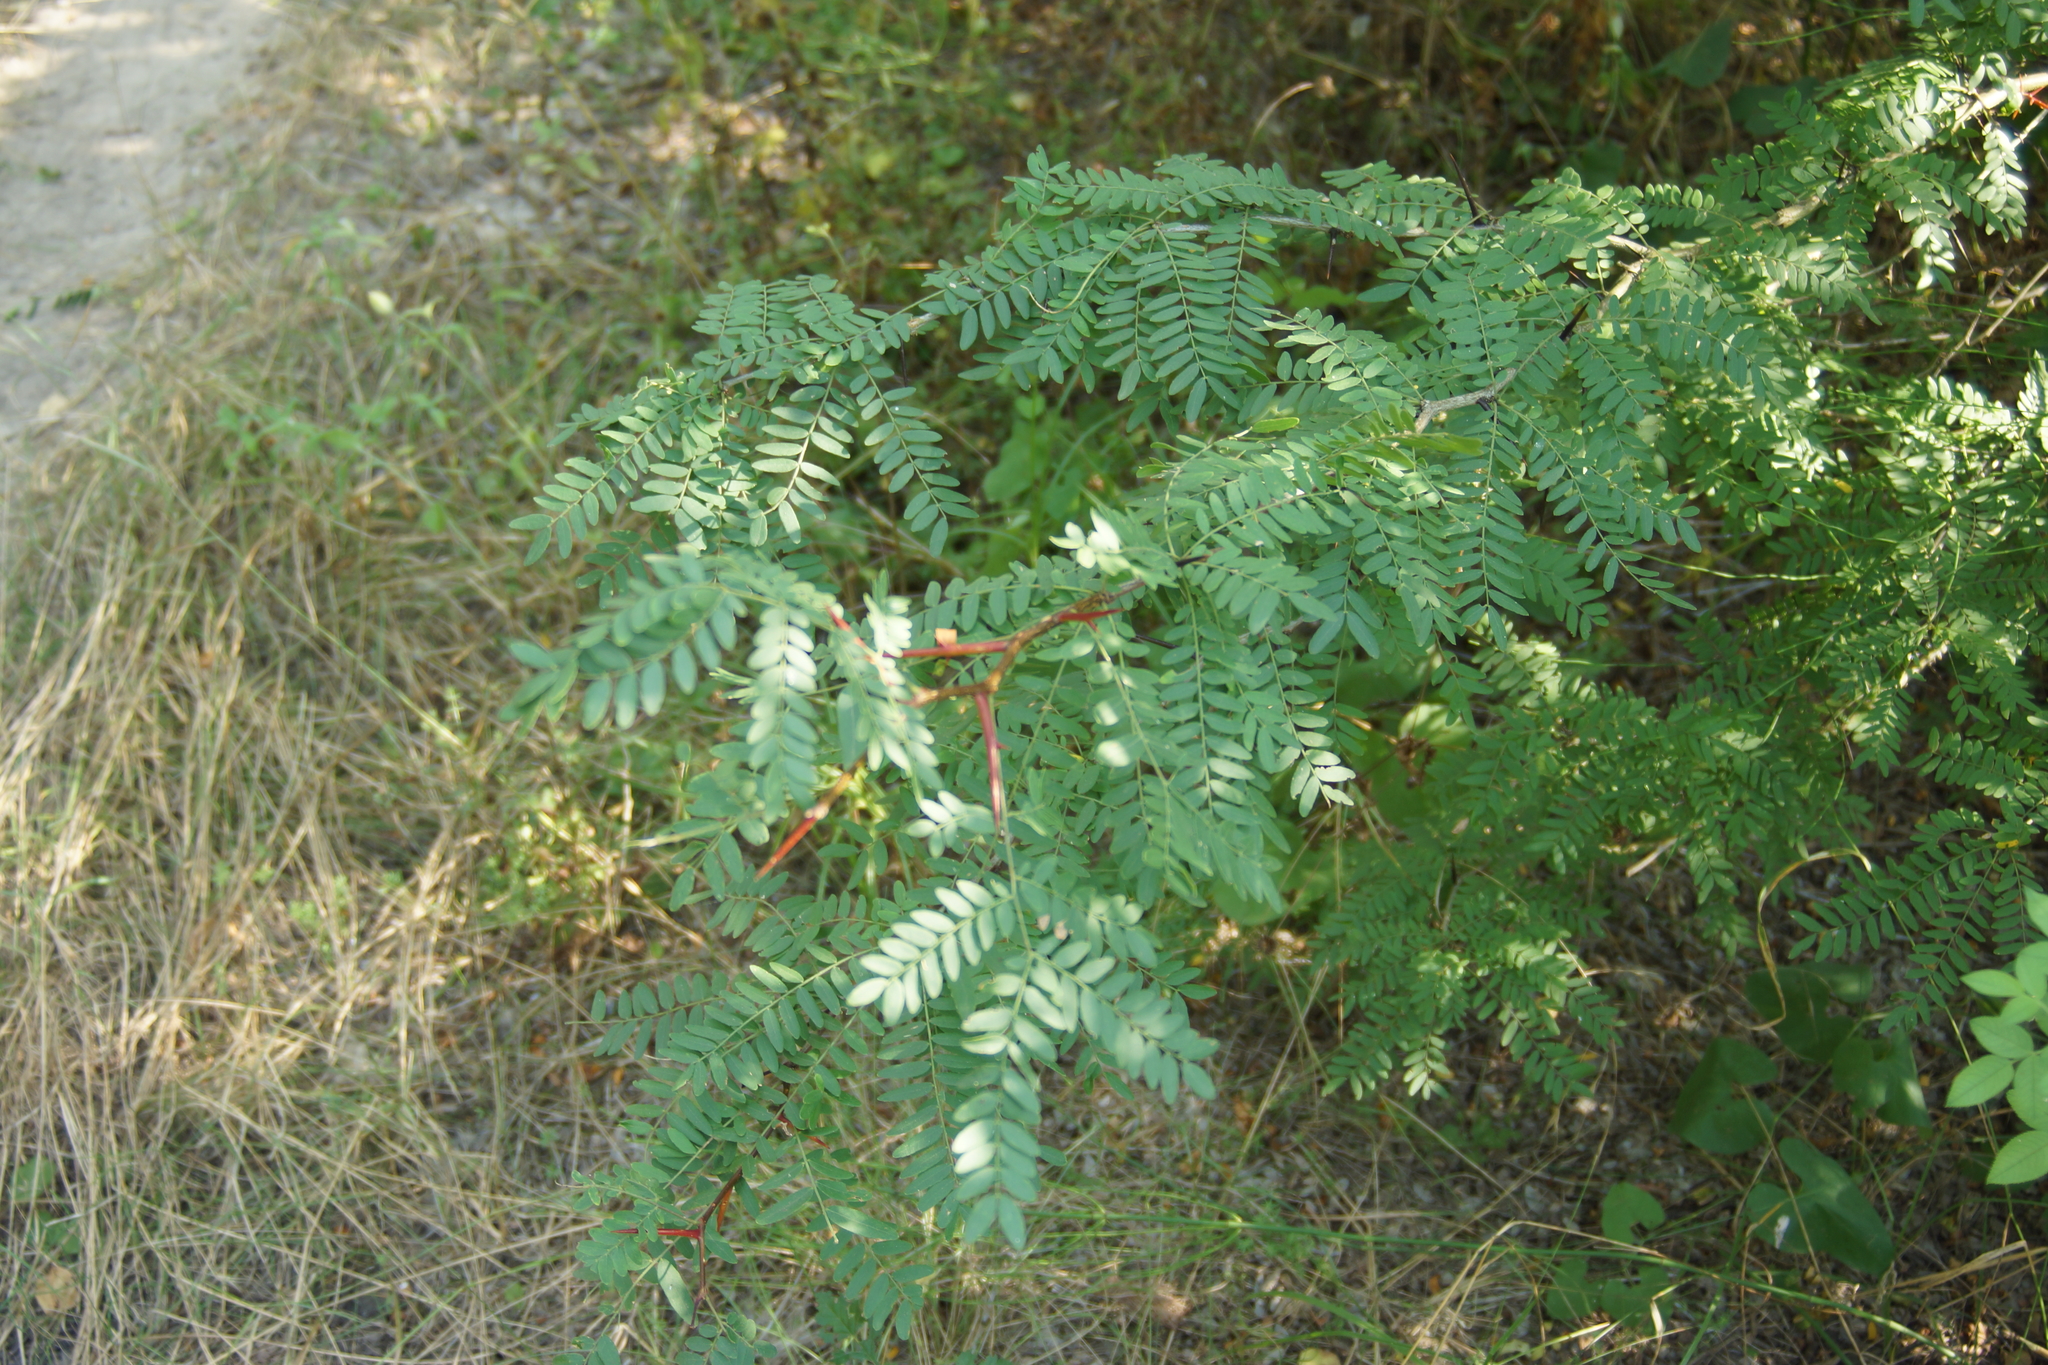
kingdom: Plantae
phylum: Tracheophyta
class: Magnoliopsida
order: Fabales
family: Fabaceae
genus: Gleditsia
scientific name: Gleditsia triacanthos
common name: Common honeylocust
